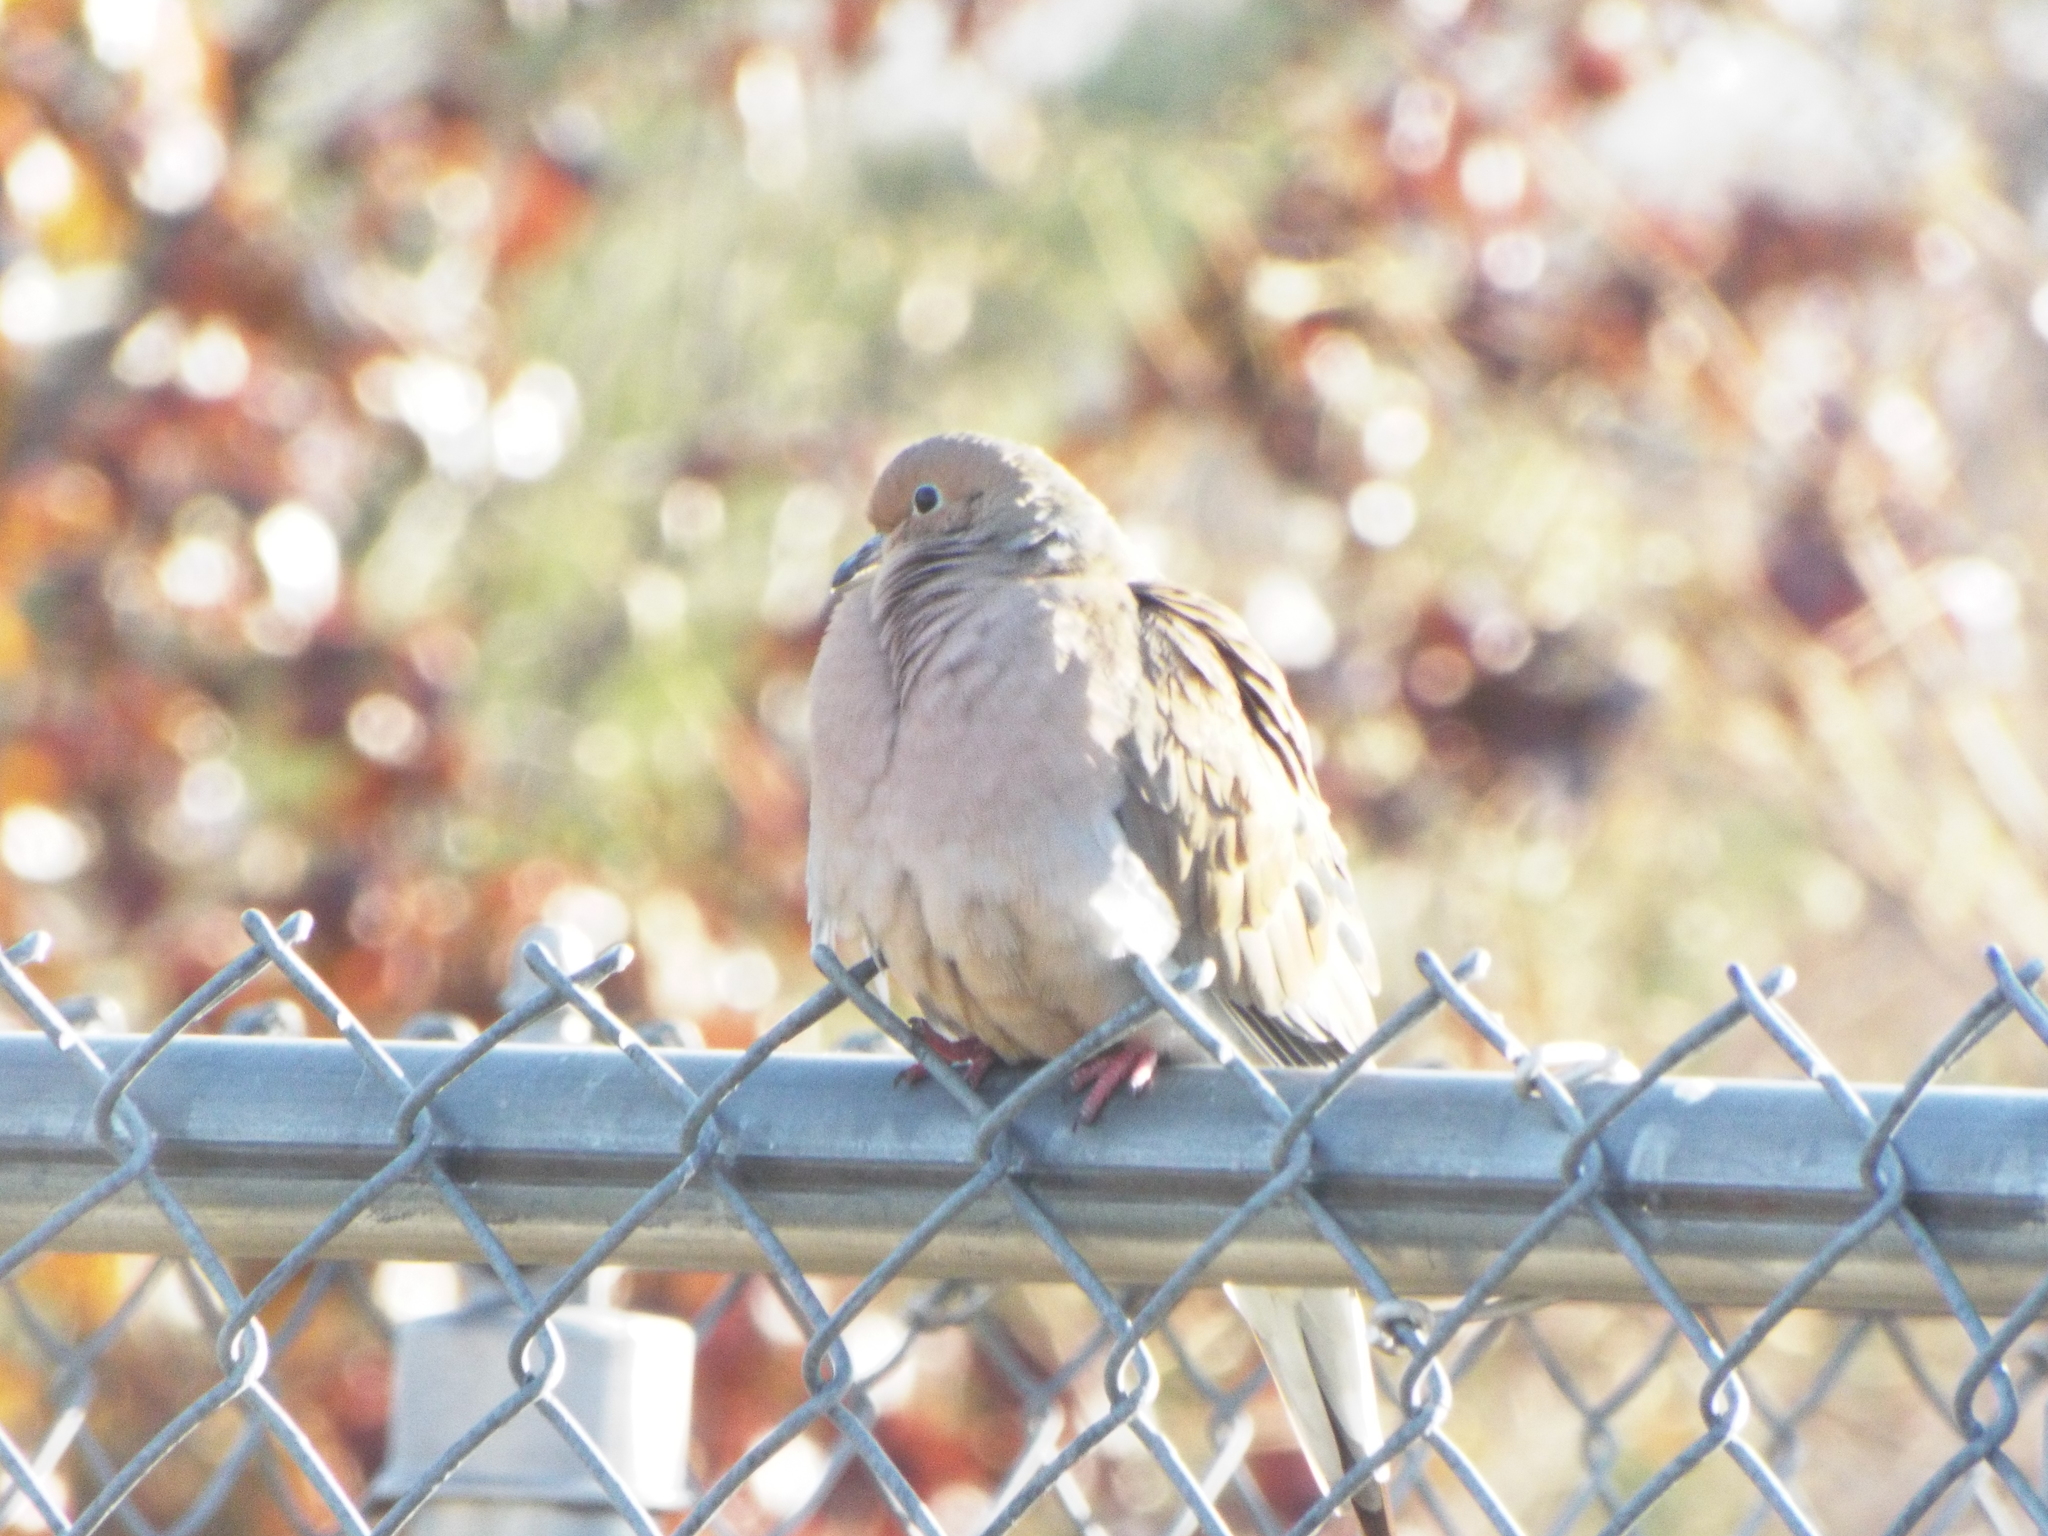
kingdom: Animalia
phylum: Chordata
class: Aves
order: Columbiformes
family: Columbidae
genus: Zenaida
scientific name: Zenaida macroura
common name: Mourning dove
